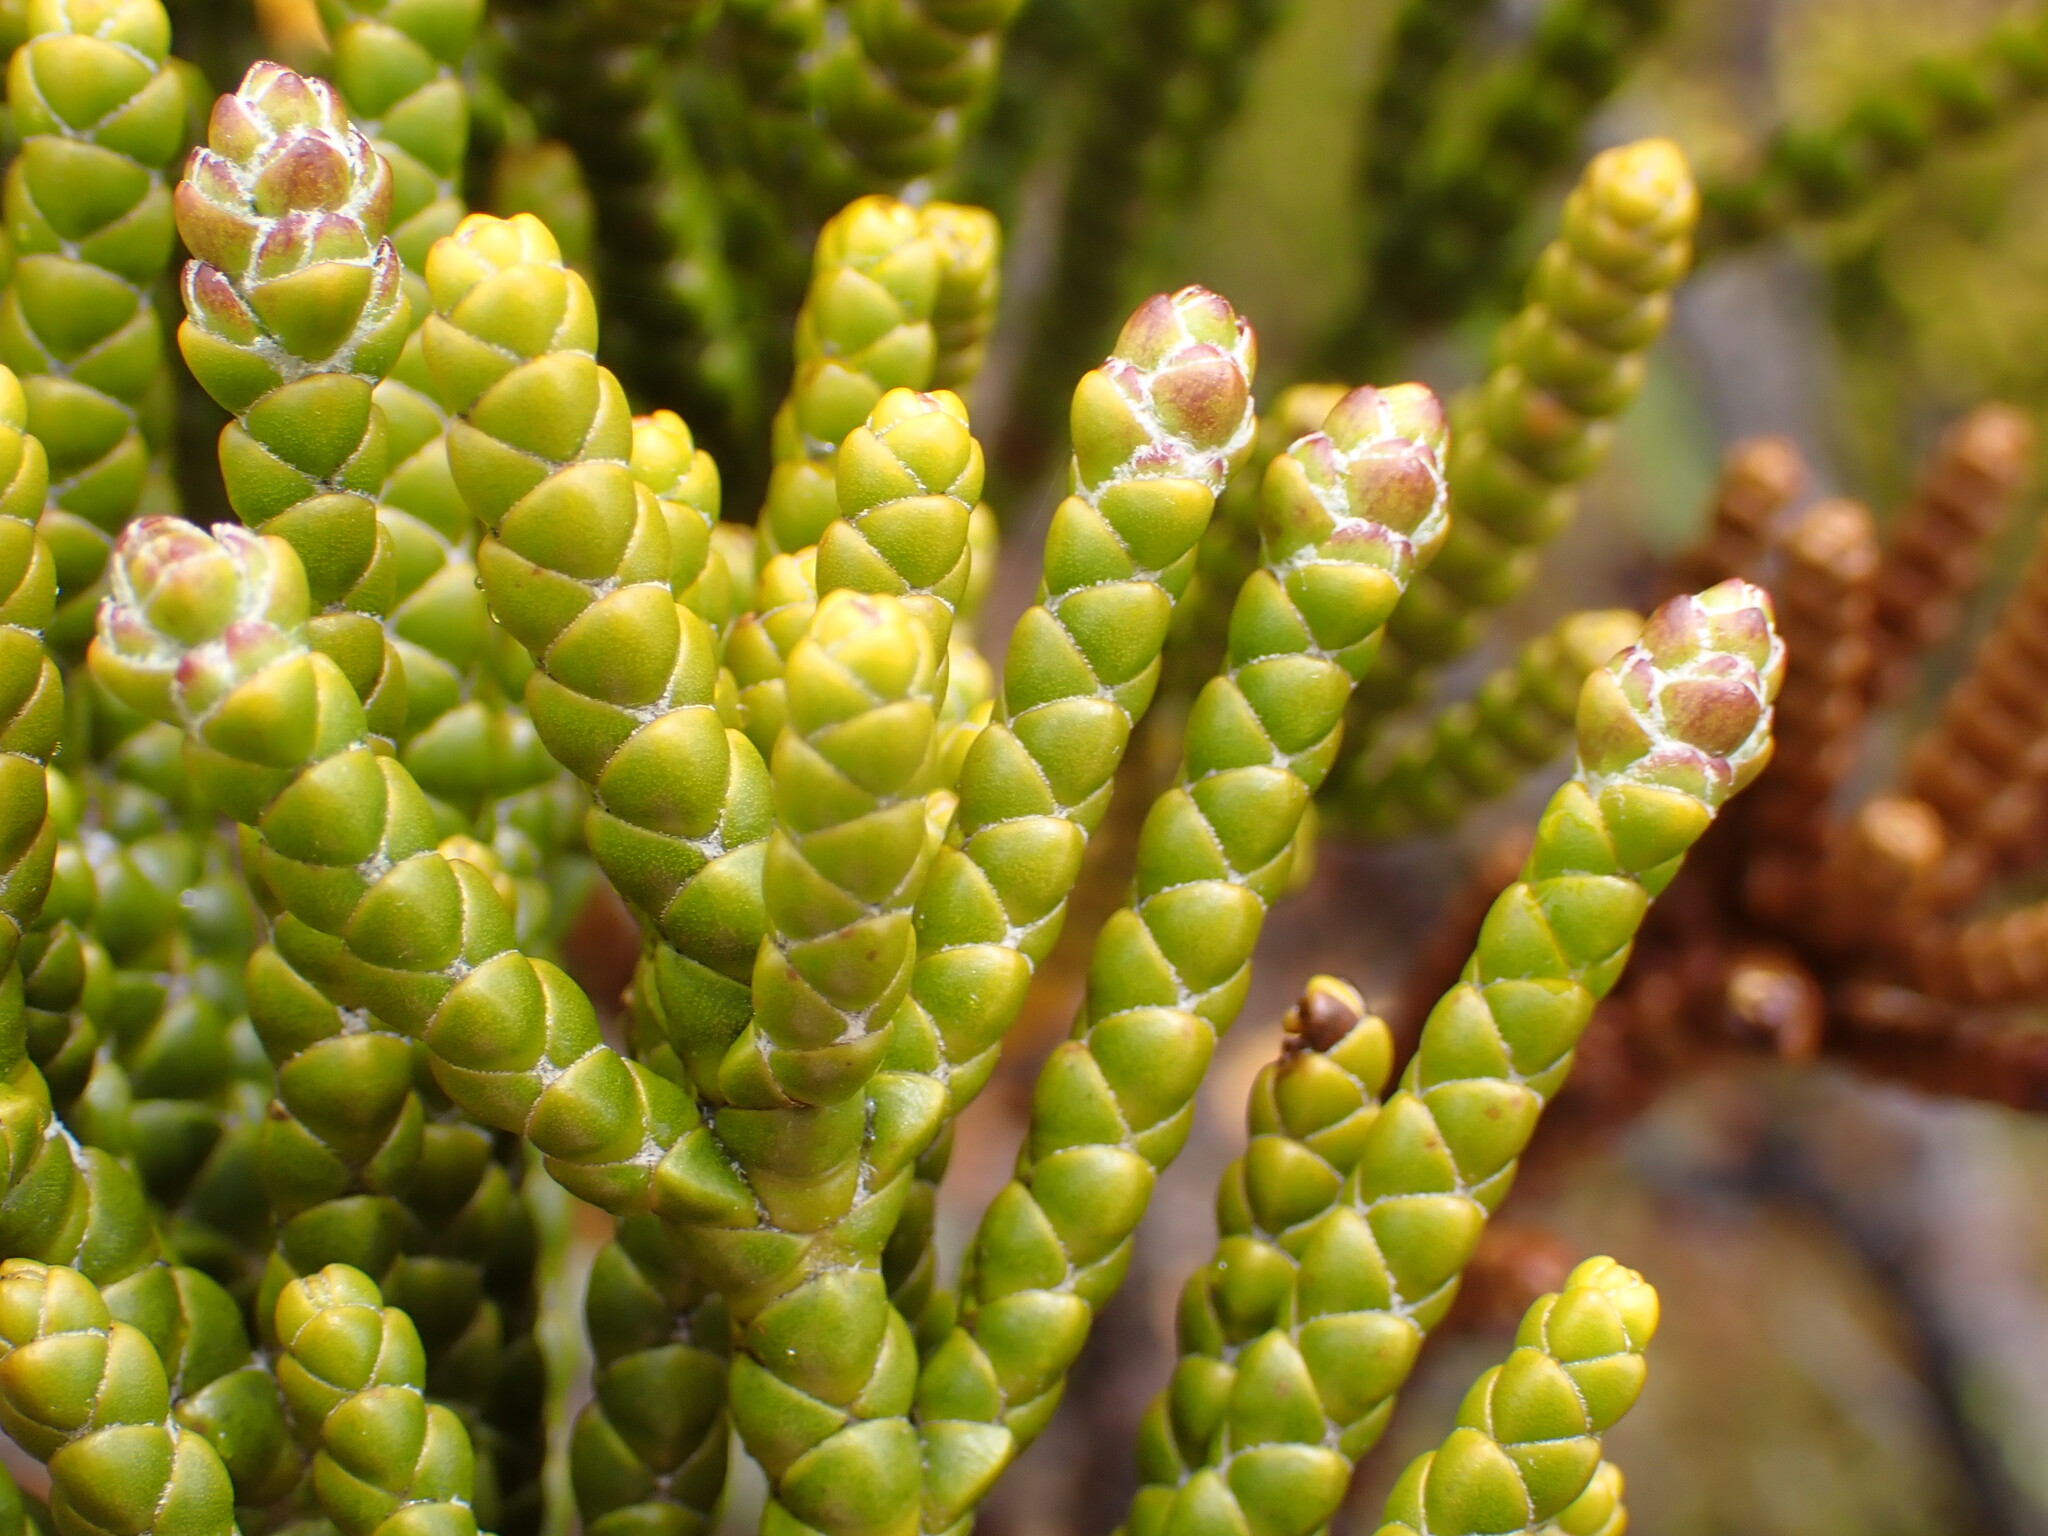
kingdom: Plantae
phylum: Tracheophyta
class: Magnoliopsida
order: Lamiales
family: Plantaginaceae
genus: Veronica
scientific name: Veronica hectorii
